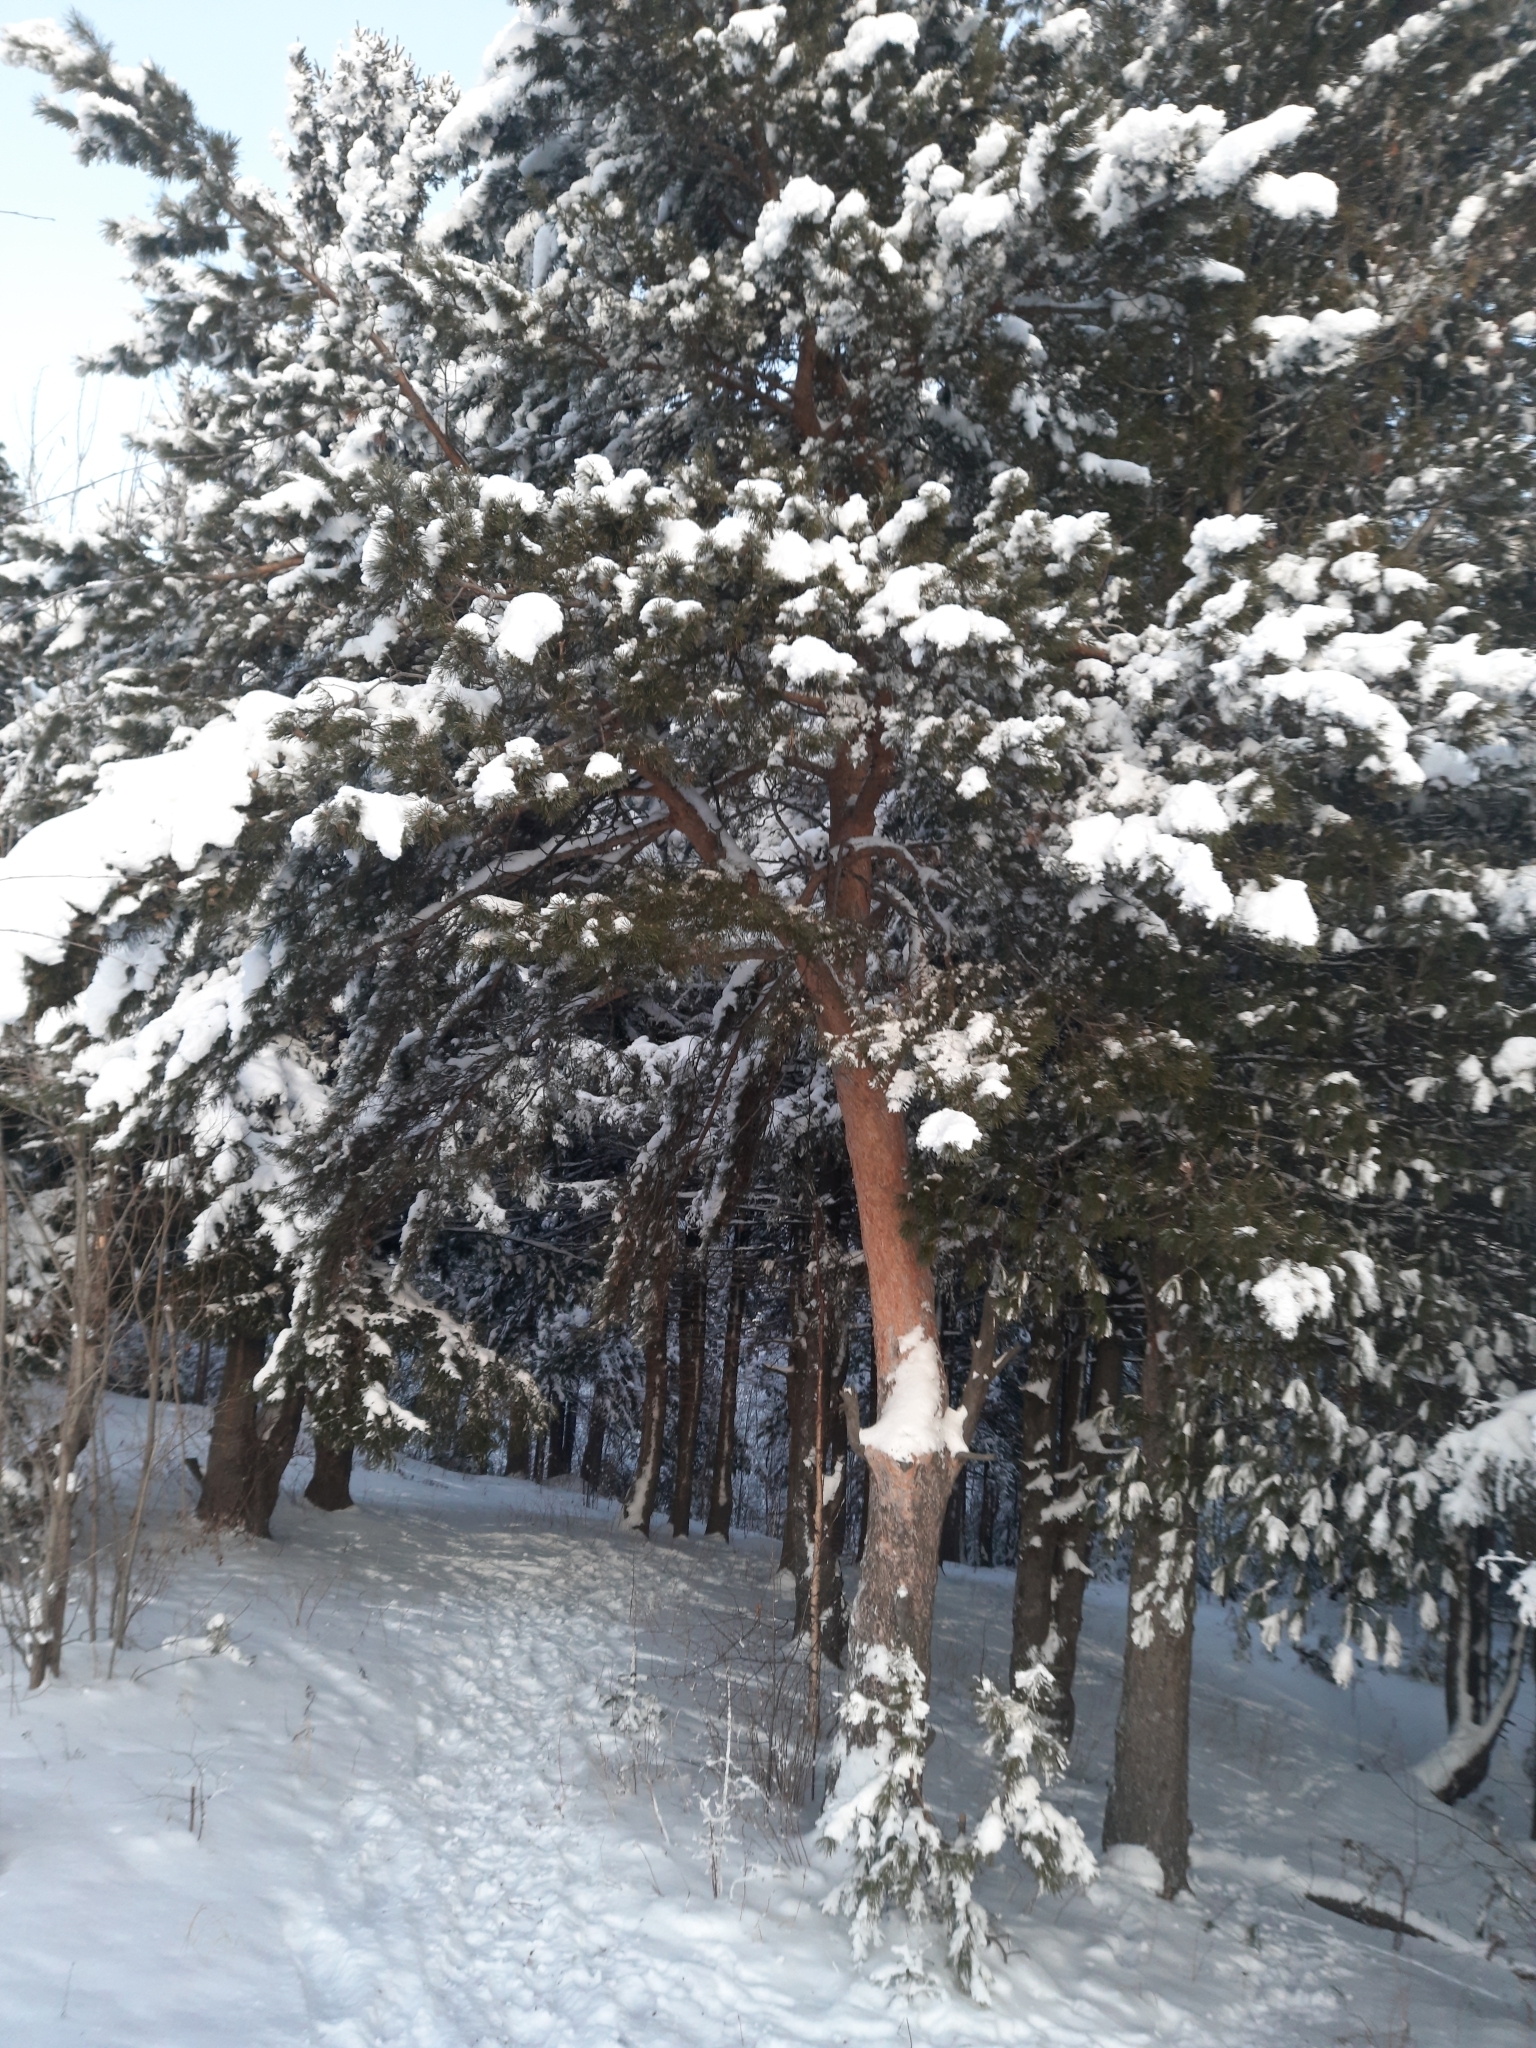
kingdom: Plantae
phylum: Tracheophyta
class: Pinopsida
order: Pinales
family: Pinaceae
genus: Pinus
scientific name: Pinus sylvestris
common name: Scots pine
